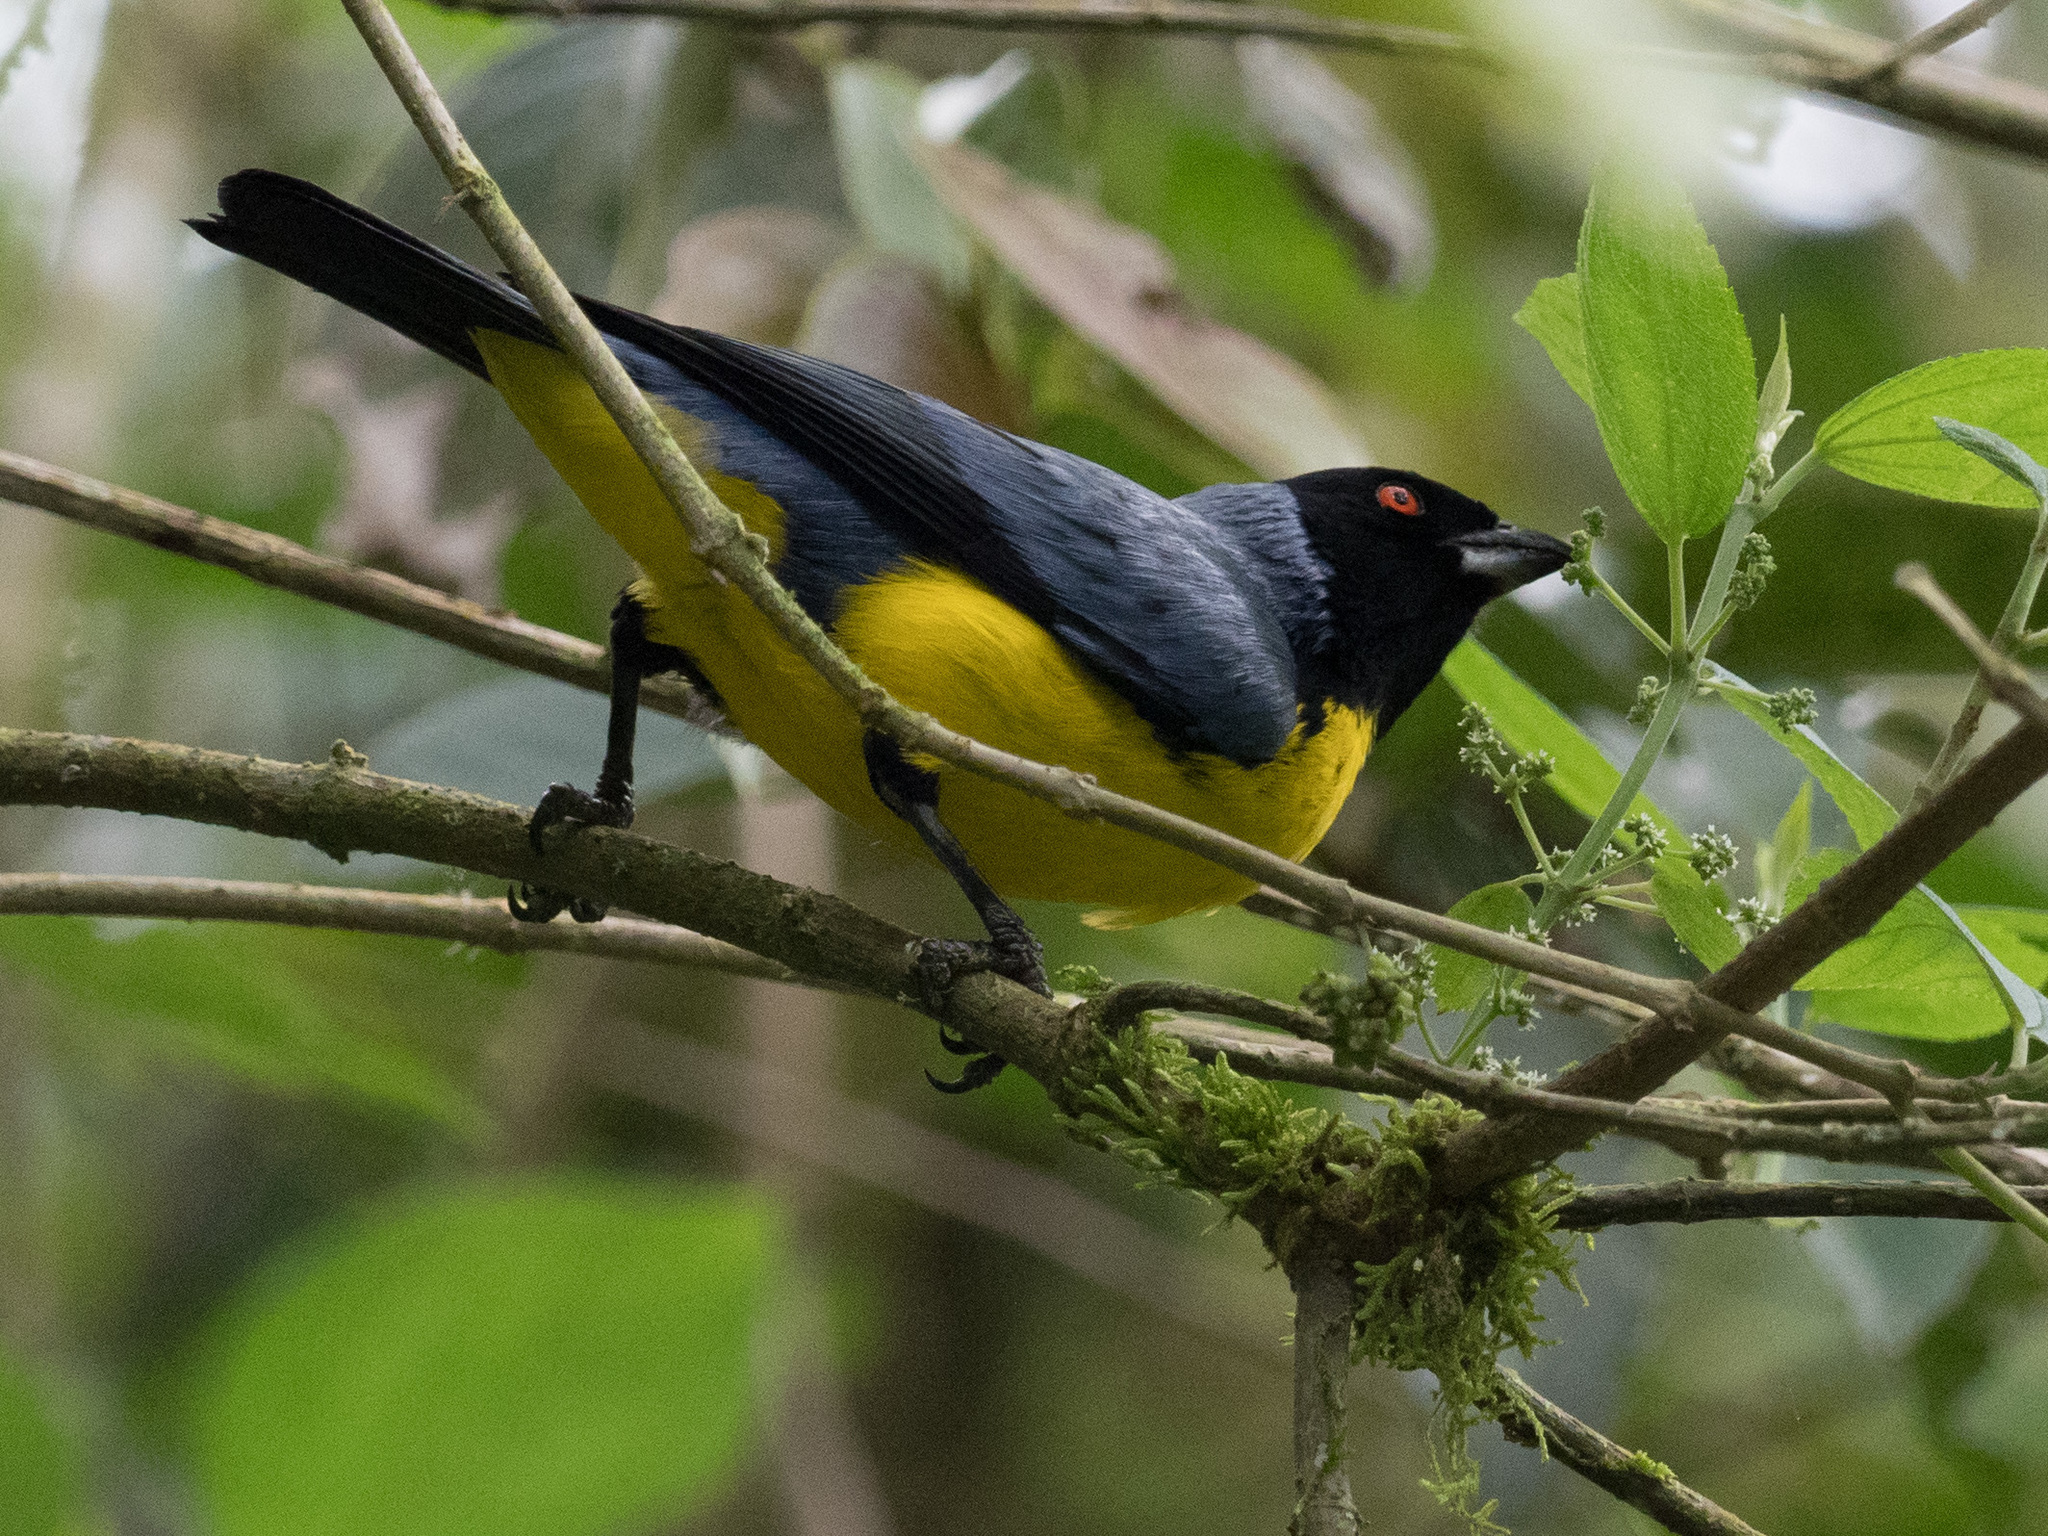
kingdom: Animalia
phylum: Chordata
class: Aves
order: Passeriformes
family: Thraupidae
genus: Buthraupis
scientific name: Buthraupis montana
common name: Hooded mountain tanager
